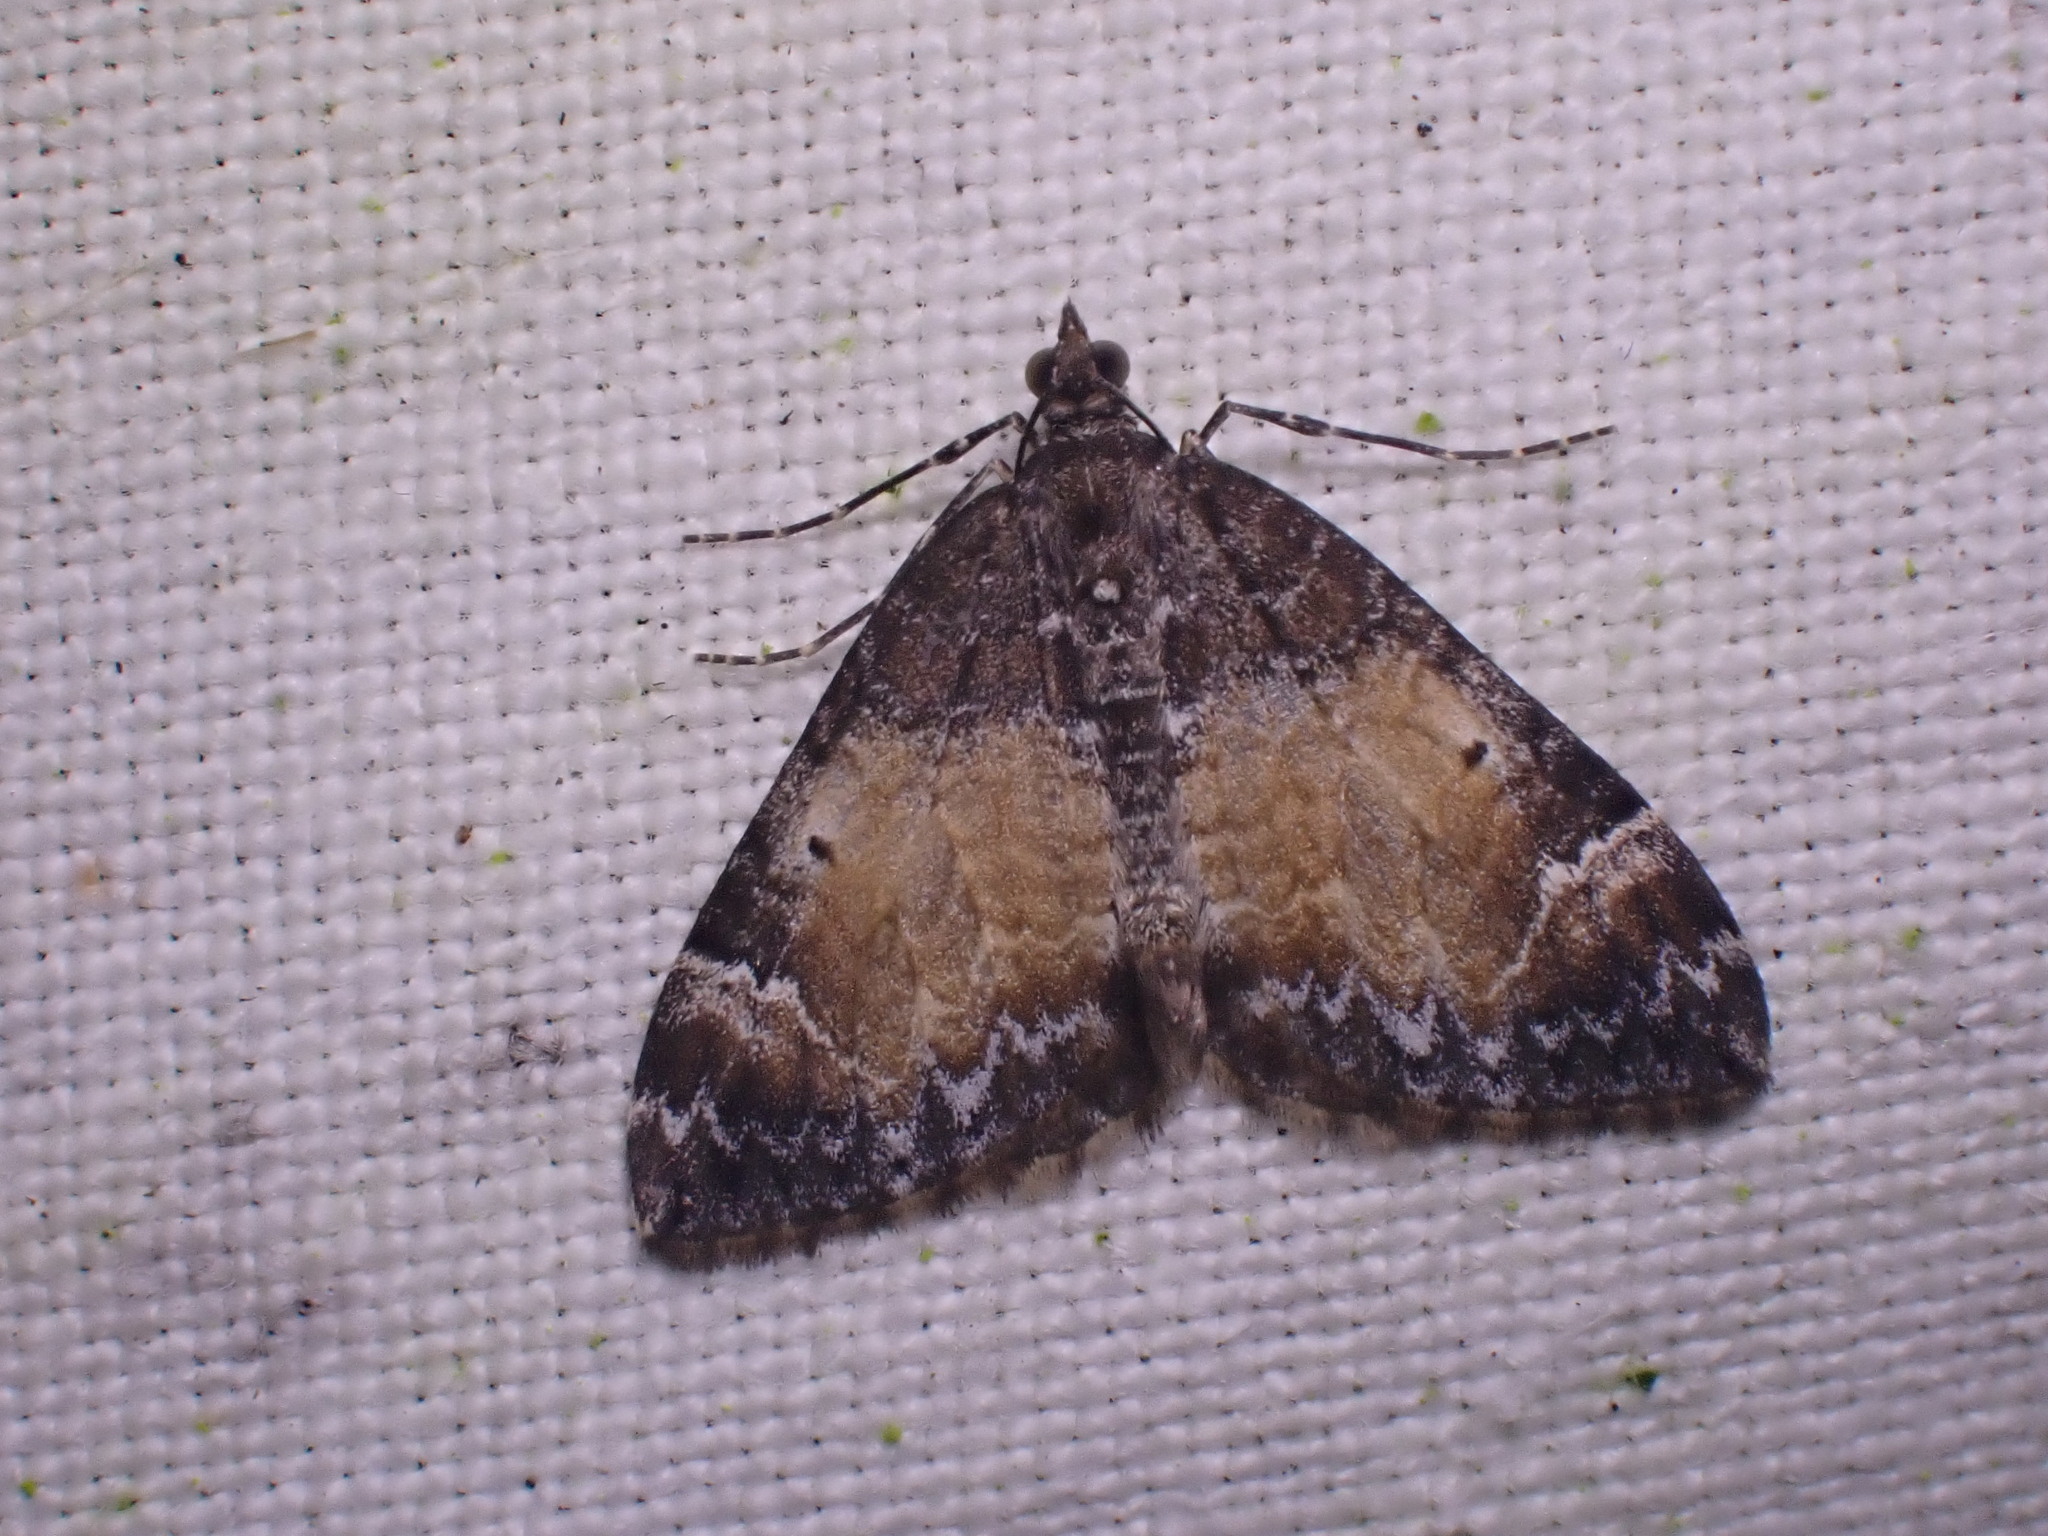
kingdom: Animalia
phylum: Arthropoda
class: Insecta
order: Lepidoptera
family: Geometridae
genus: Dysstroma
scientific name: Dysstroma truncata
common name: Common marbled carpet
